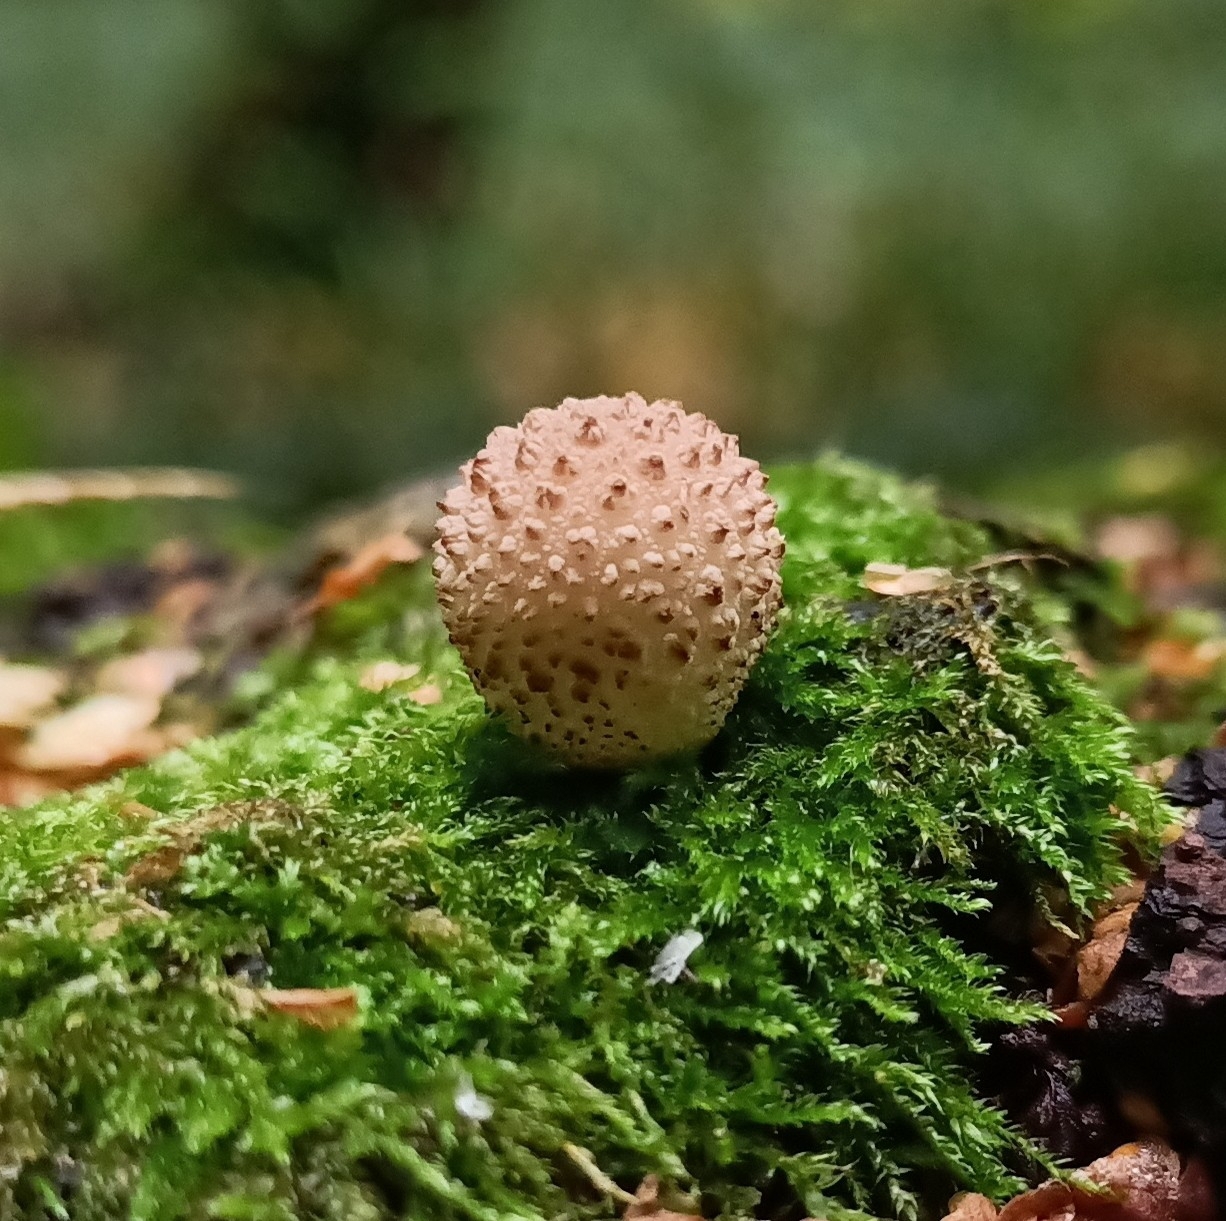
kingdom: Fungi
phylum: Basidiomycota
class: Agaricomycetes
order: Agaricales
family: Lycoperdaceae
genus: Lycoperdon
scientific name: Lycoperdon perlatum
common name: Common puffball
